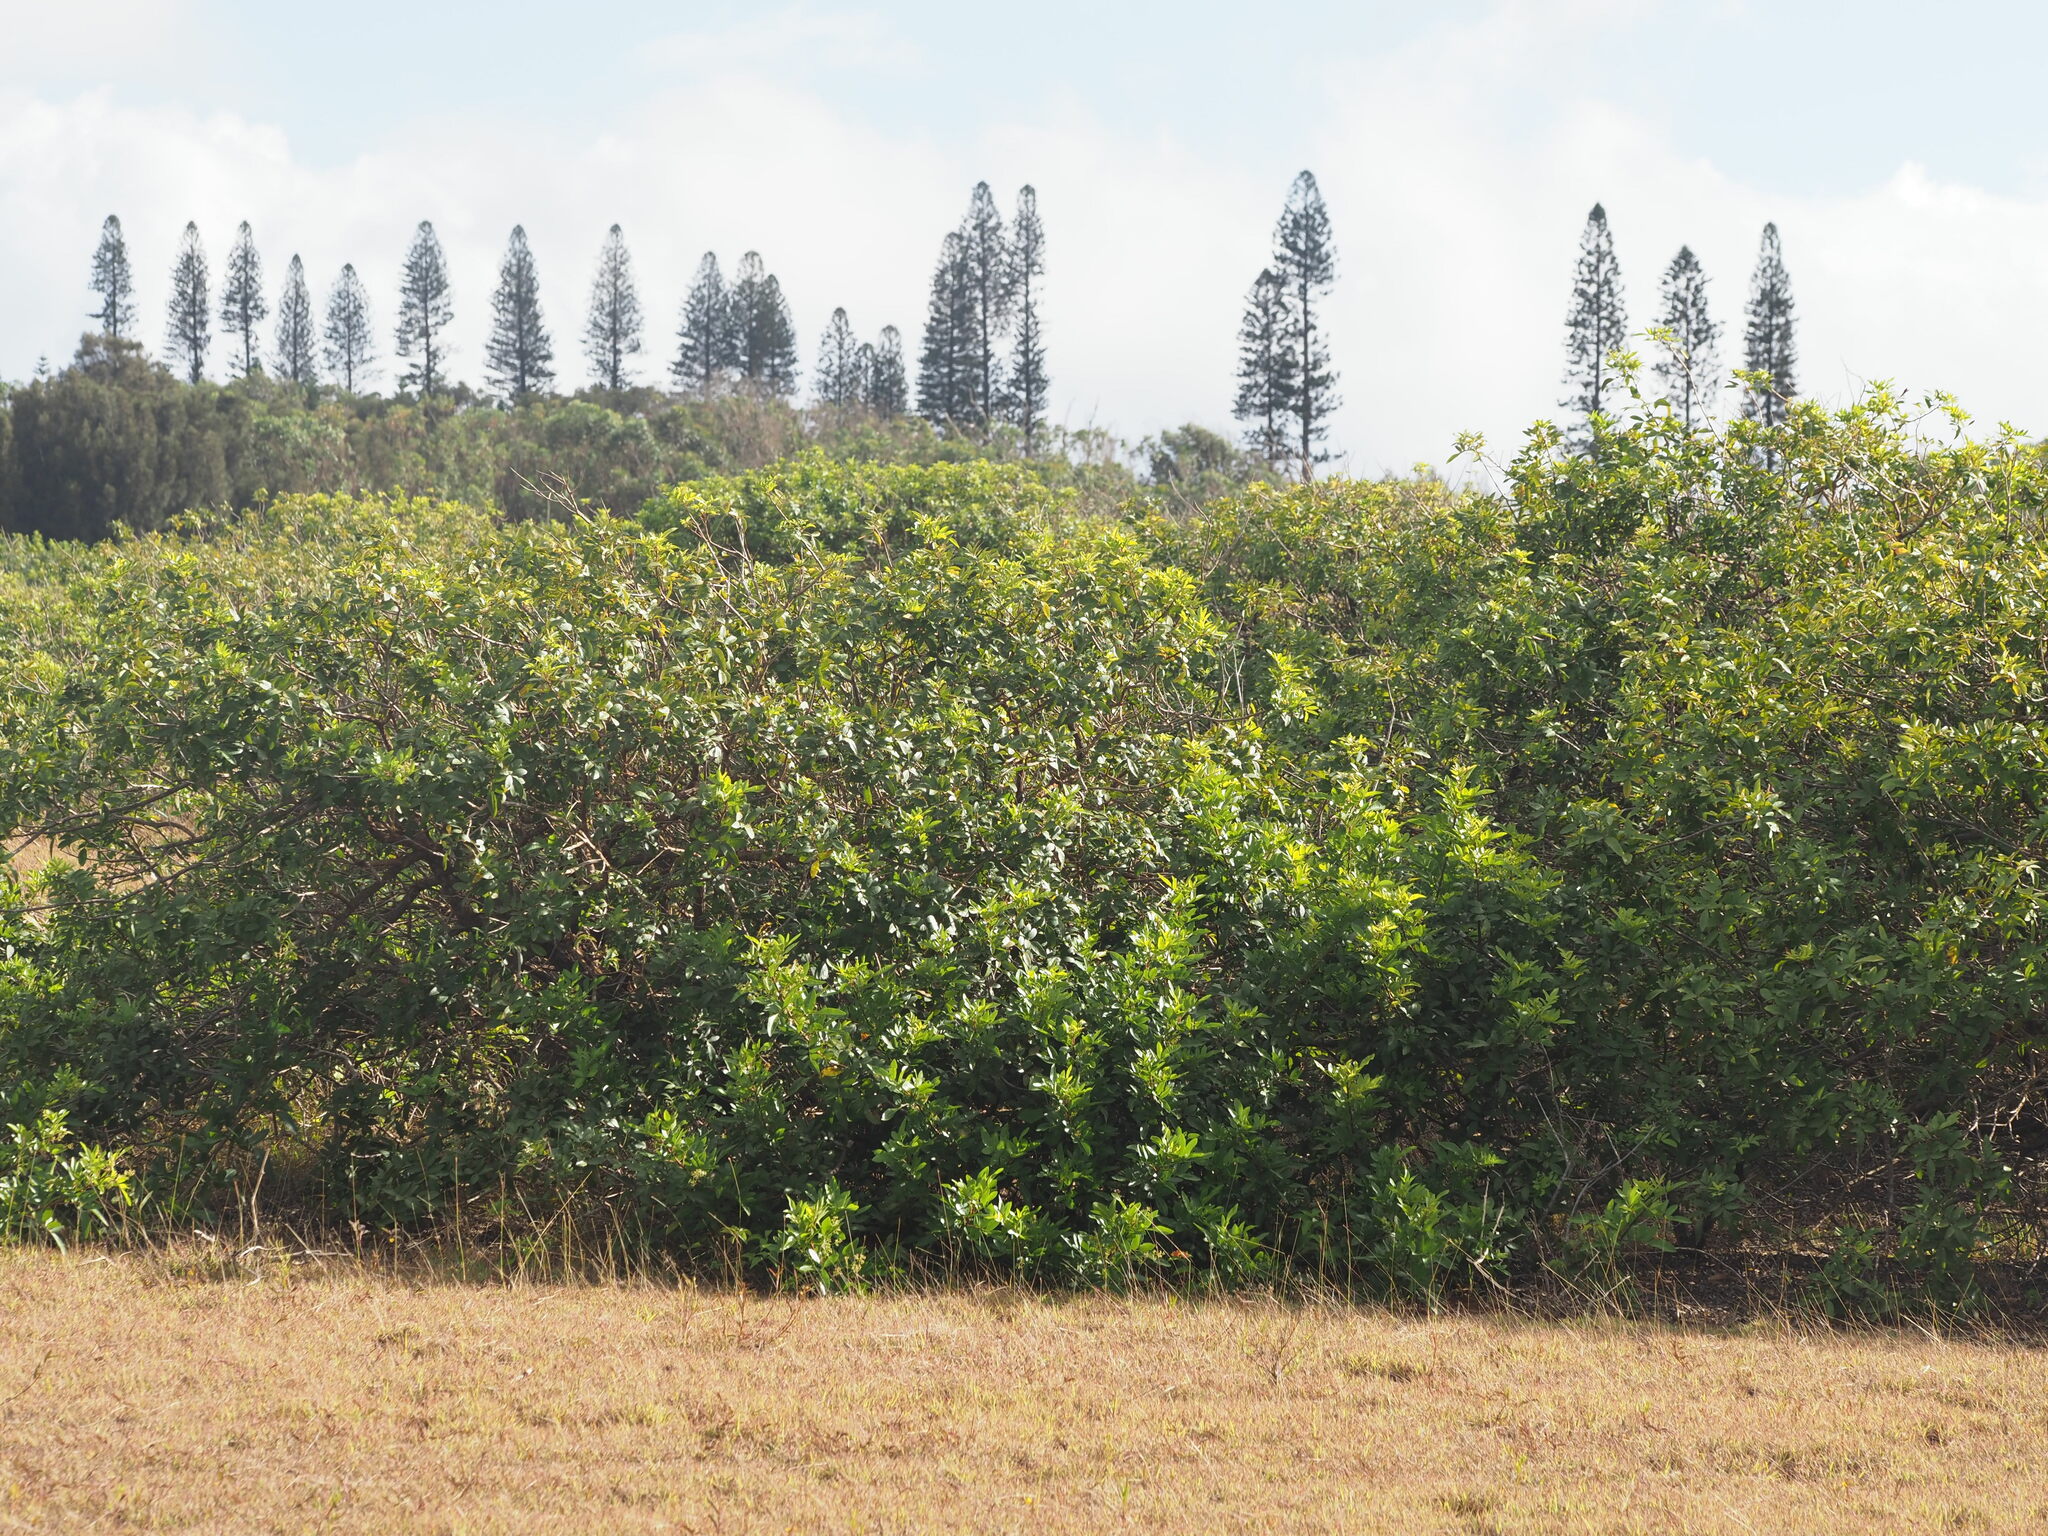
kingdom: Plantae
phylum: Tracheophyta
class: Magnoliopsida
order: Sapindales
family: Anacardiaceae
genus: Schinus
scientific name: Schinus terebinthifolia
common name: Brazilian peppertree
